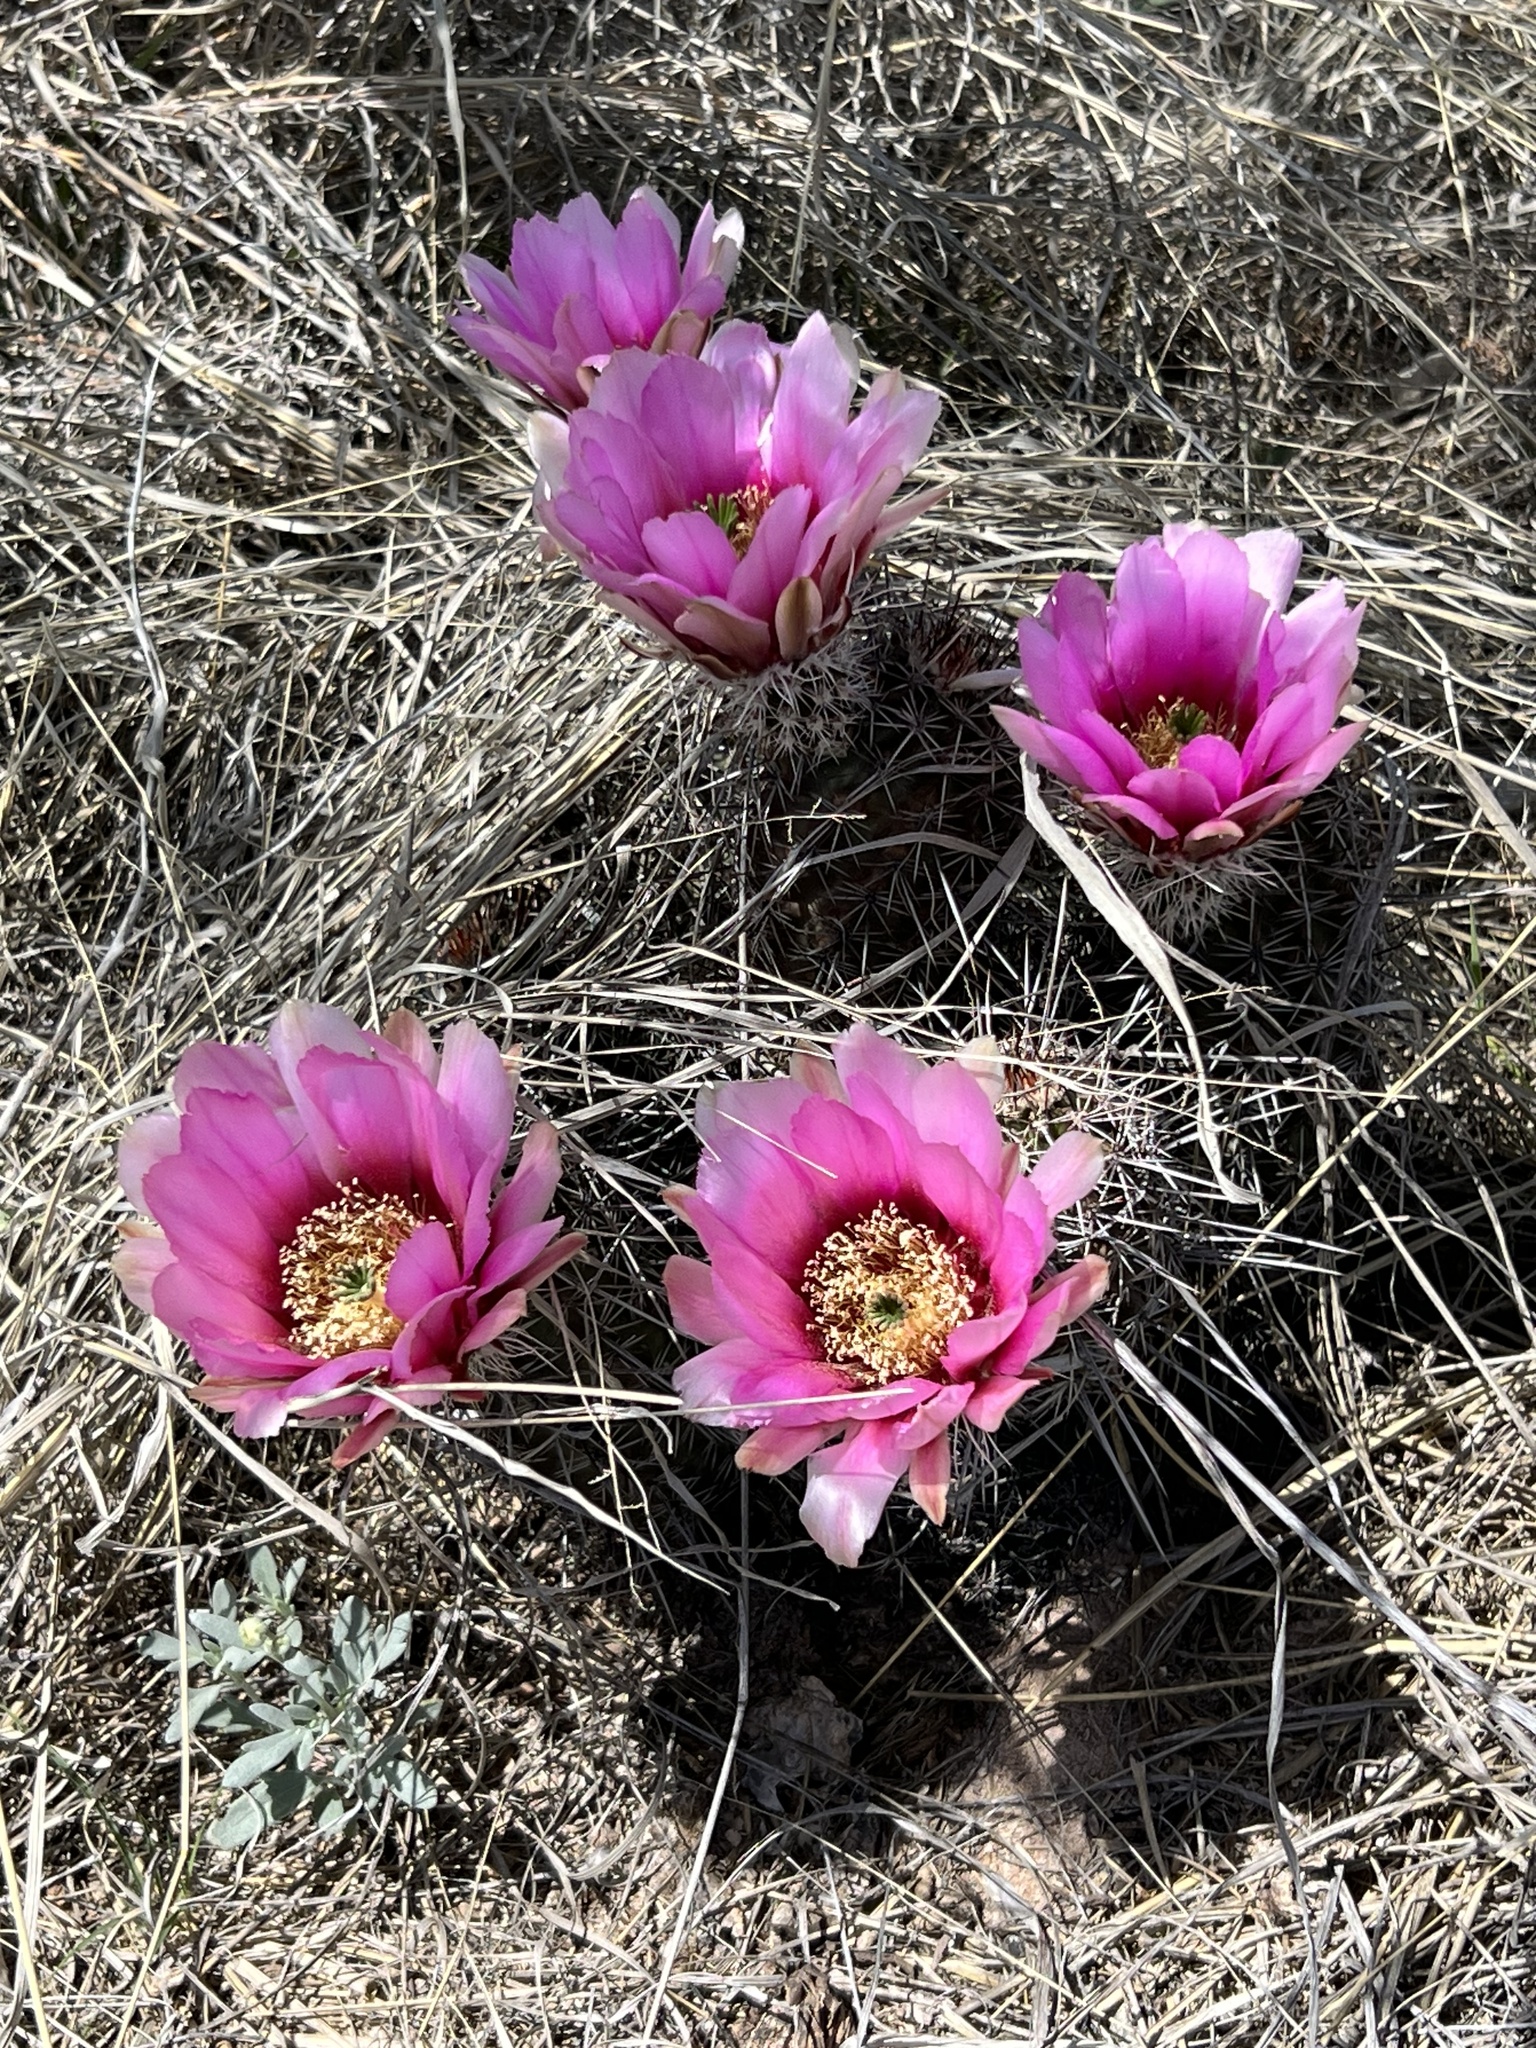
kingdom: Plantae
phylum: Tracheophyta
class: Magnoliopsida
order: Caryophyllales
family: Cactaceae
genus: Echinocereus
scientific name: Echinocereus fasciculatus
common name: Bundle hedgehog
